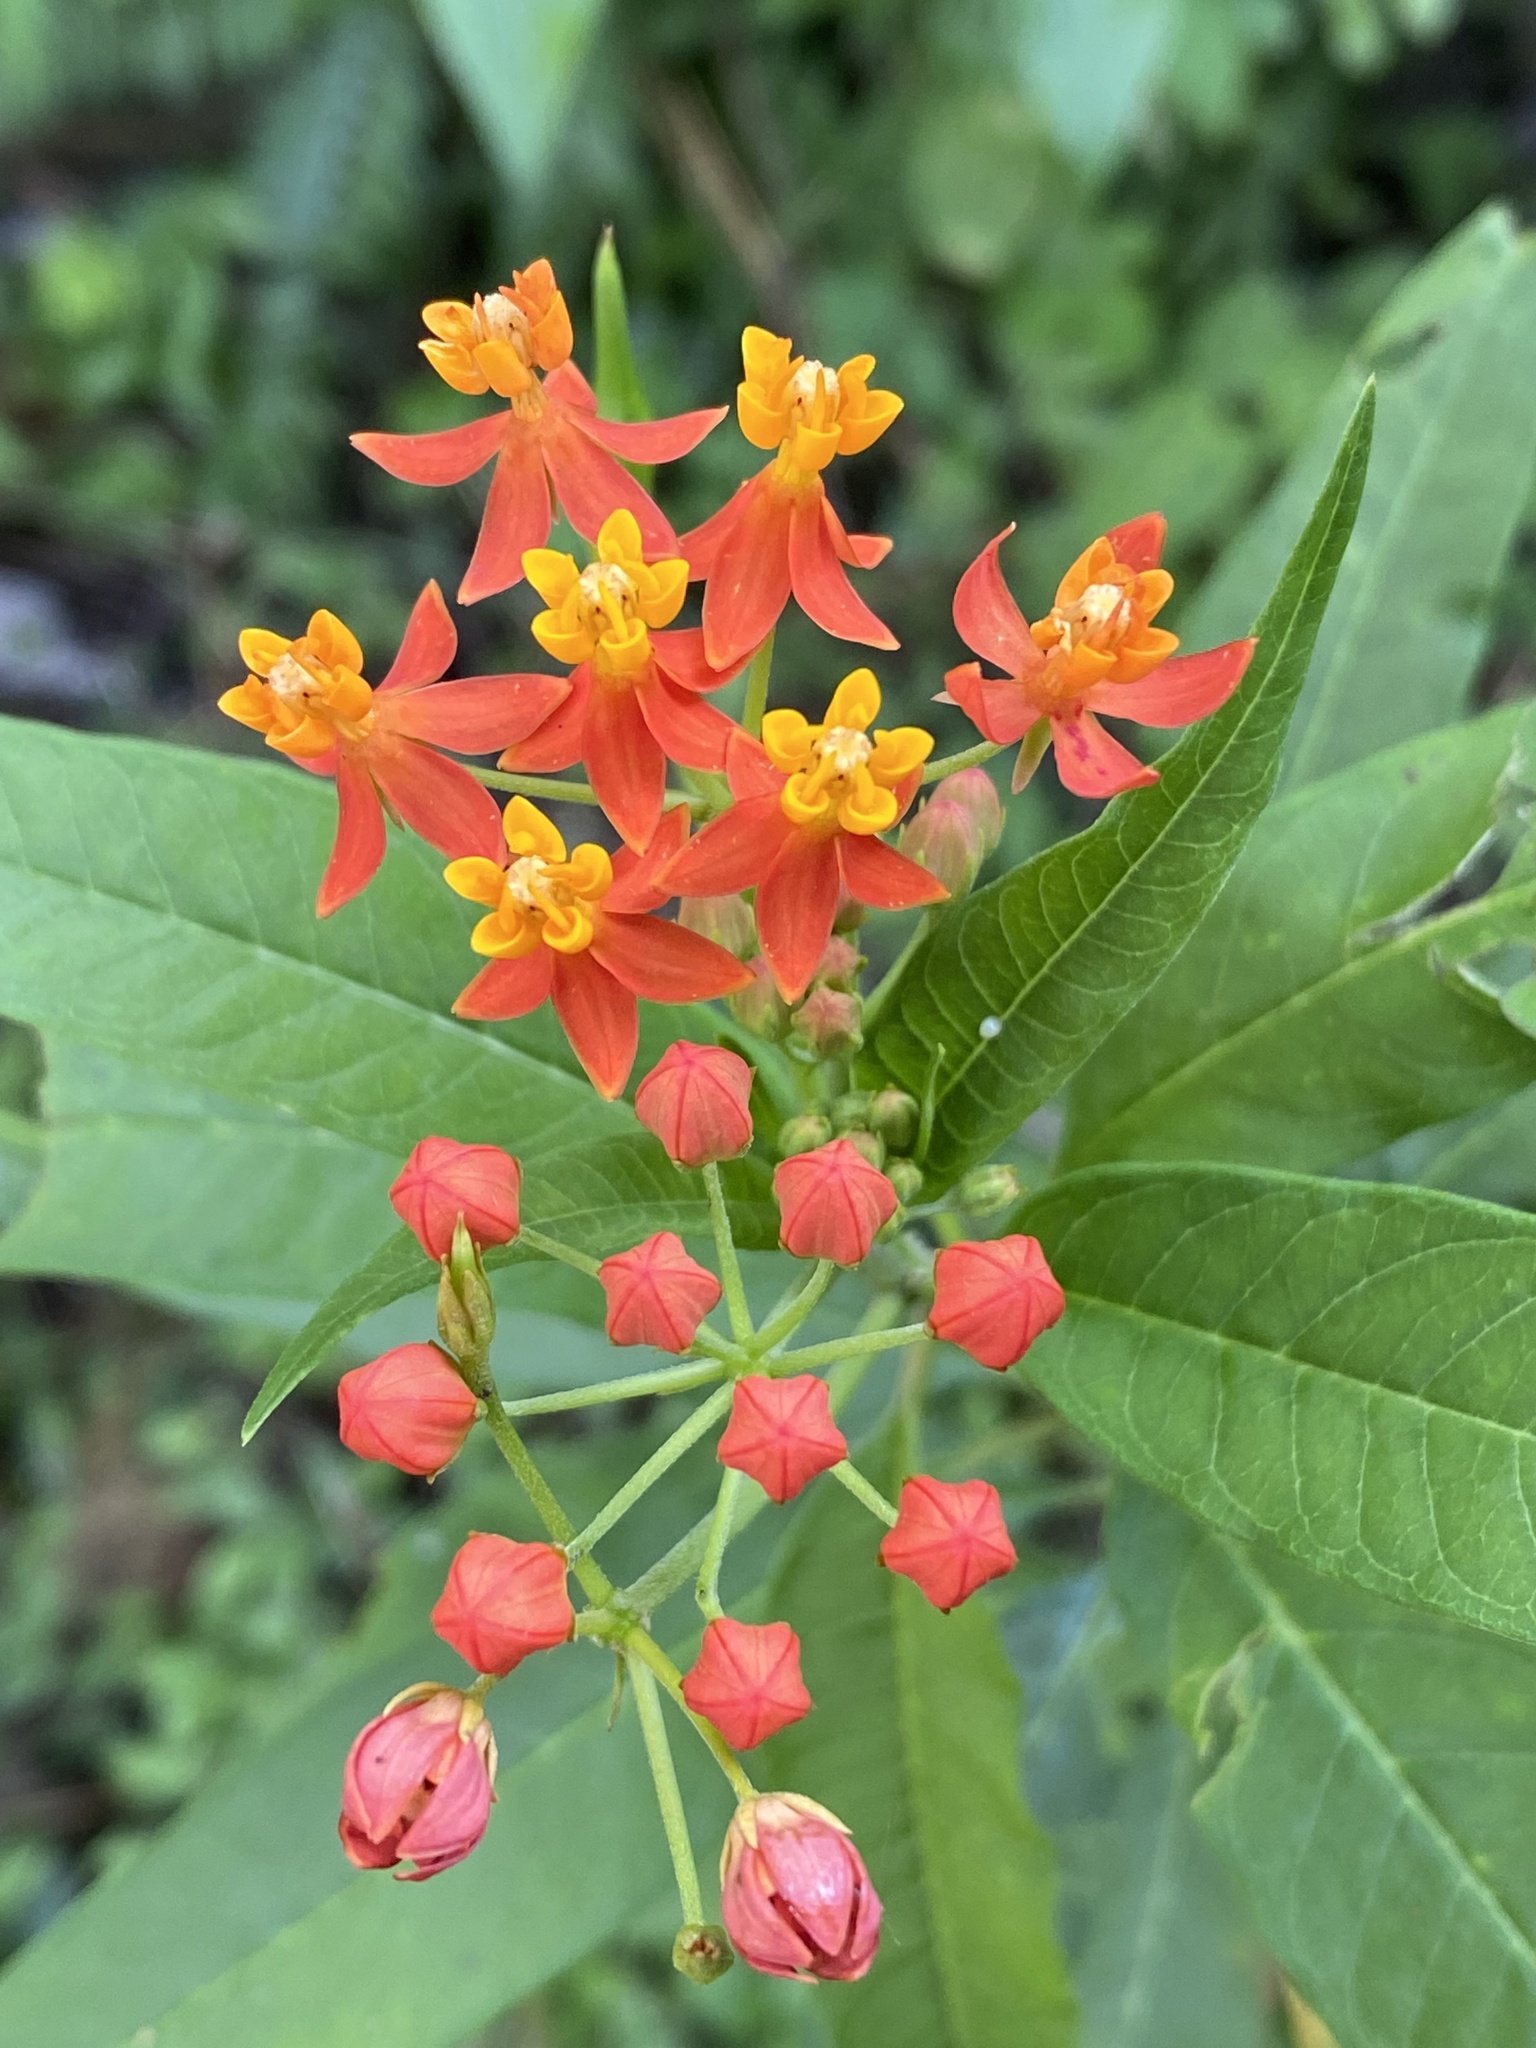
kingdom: Plantae
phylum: Tracheophyta
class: Magnoliopsida
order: Gentianales
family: Apocynaceae
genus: Asclepias
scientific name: Asclepias curassavica
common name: Bloodflower
